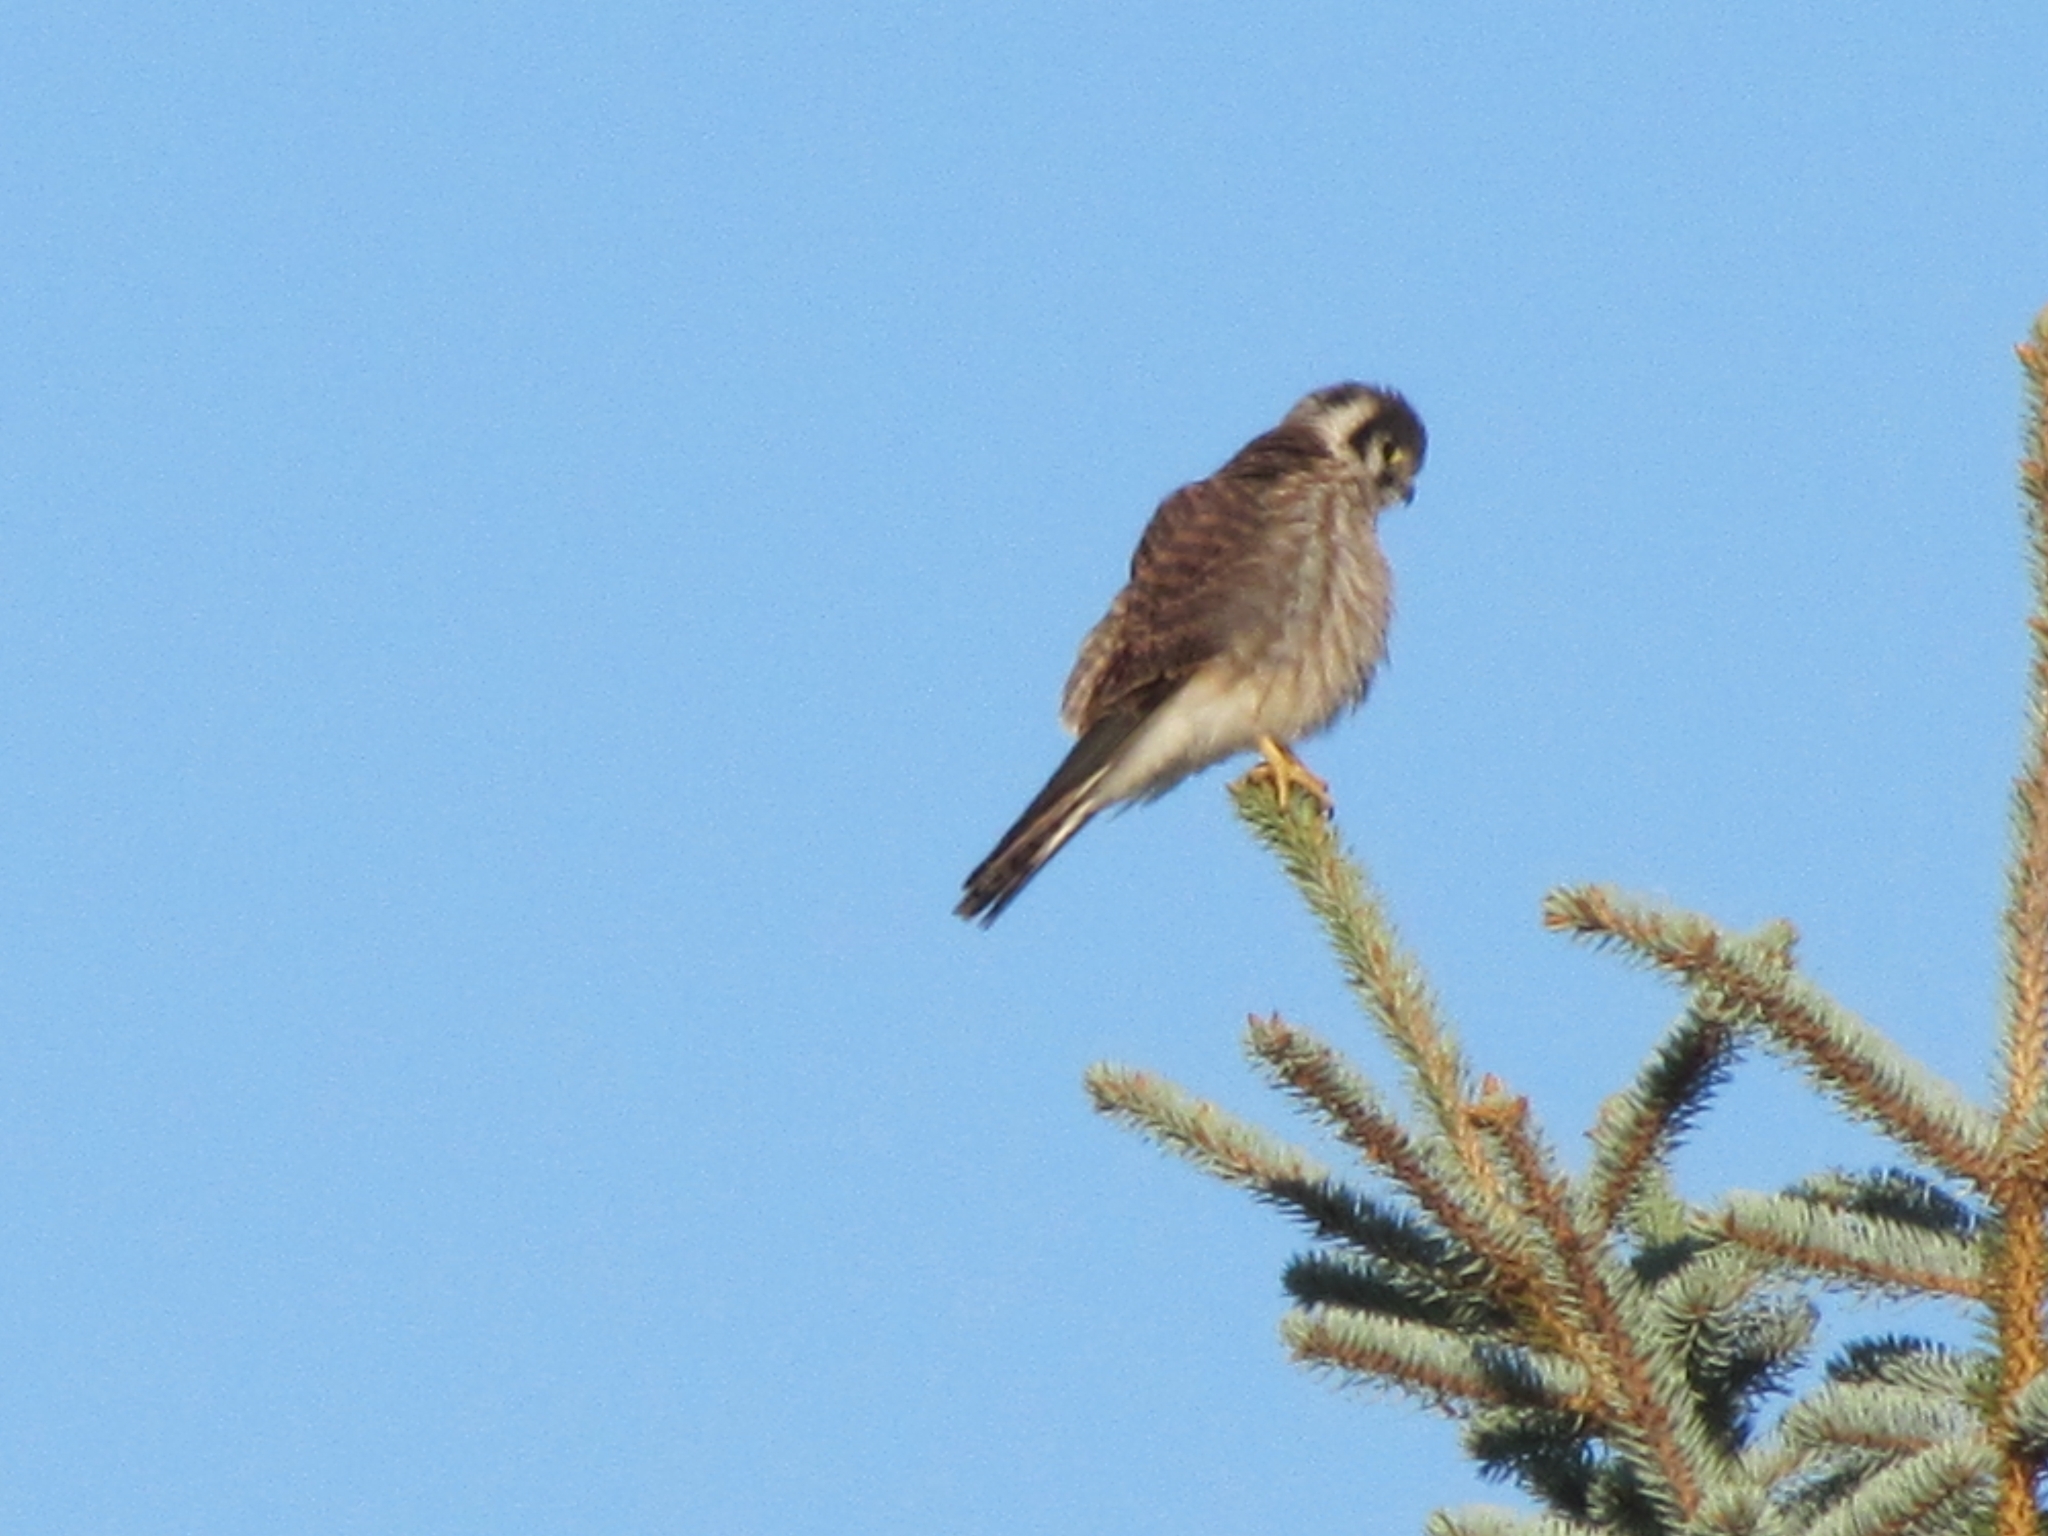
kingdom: Animalia
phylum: Chordata
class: Aves
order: Falconiformes
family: Falconidae
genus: Falco
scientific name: Falco sparverius
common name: American kestrel
